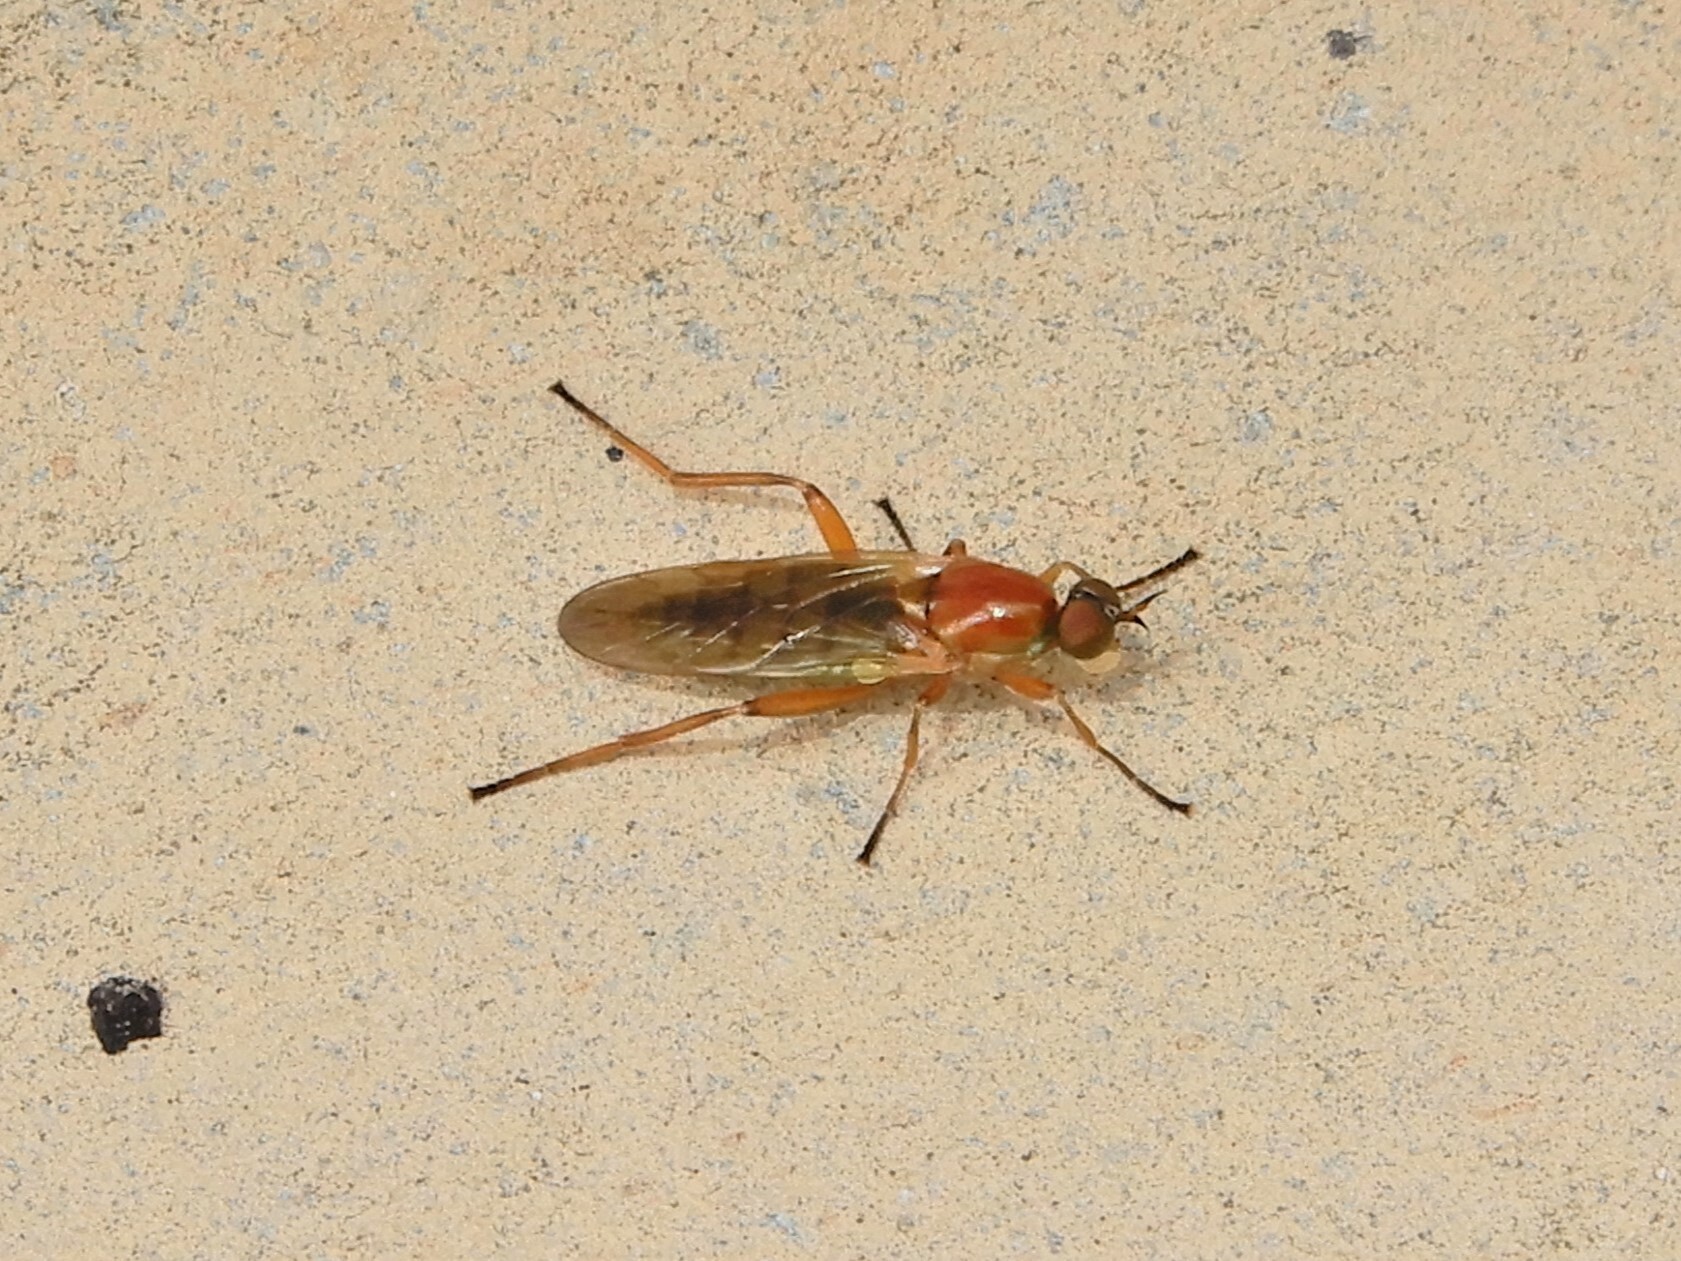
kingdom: Animalia
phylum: Arthropoda
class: Insecta
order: Diptera
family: Stratiomyidae
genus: Australoberis
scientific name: Australoberis refugians
